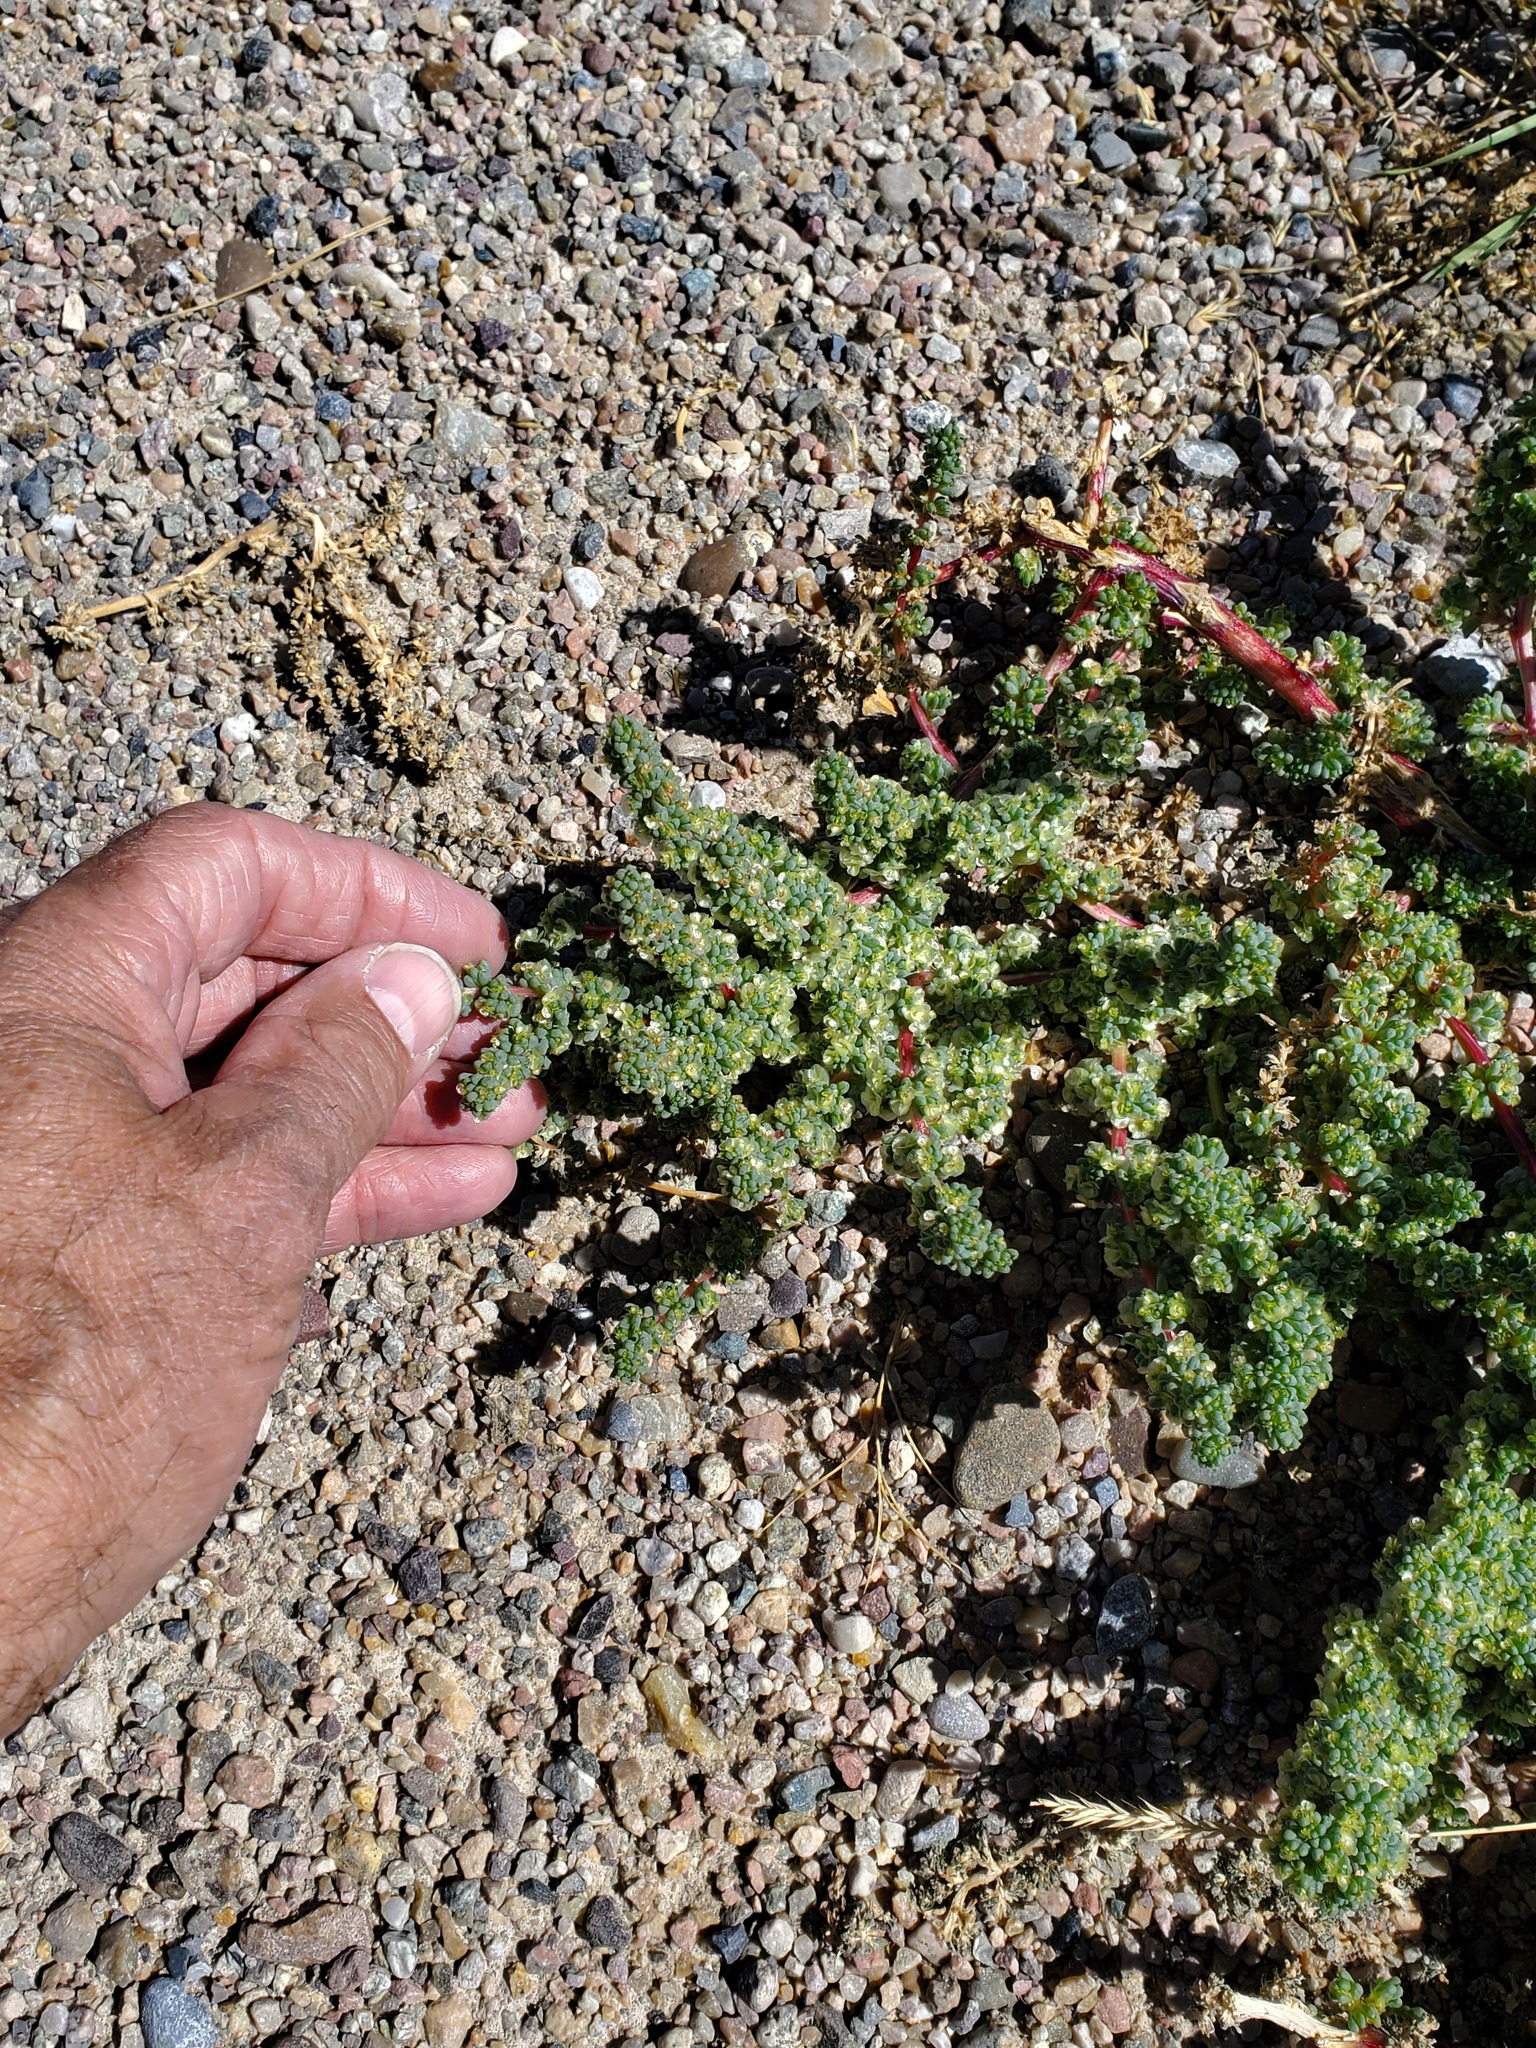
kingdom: Plantae
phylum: Tracheophyta
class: Magnoliopsida
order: Caryophyllales
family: Amaranthaceae
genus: Halogeton
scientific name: Halogeton glomeratus
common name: Saltlover
